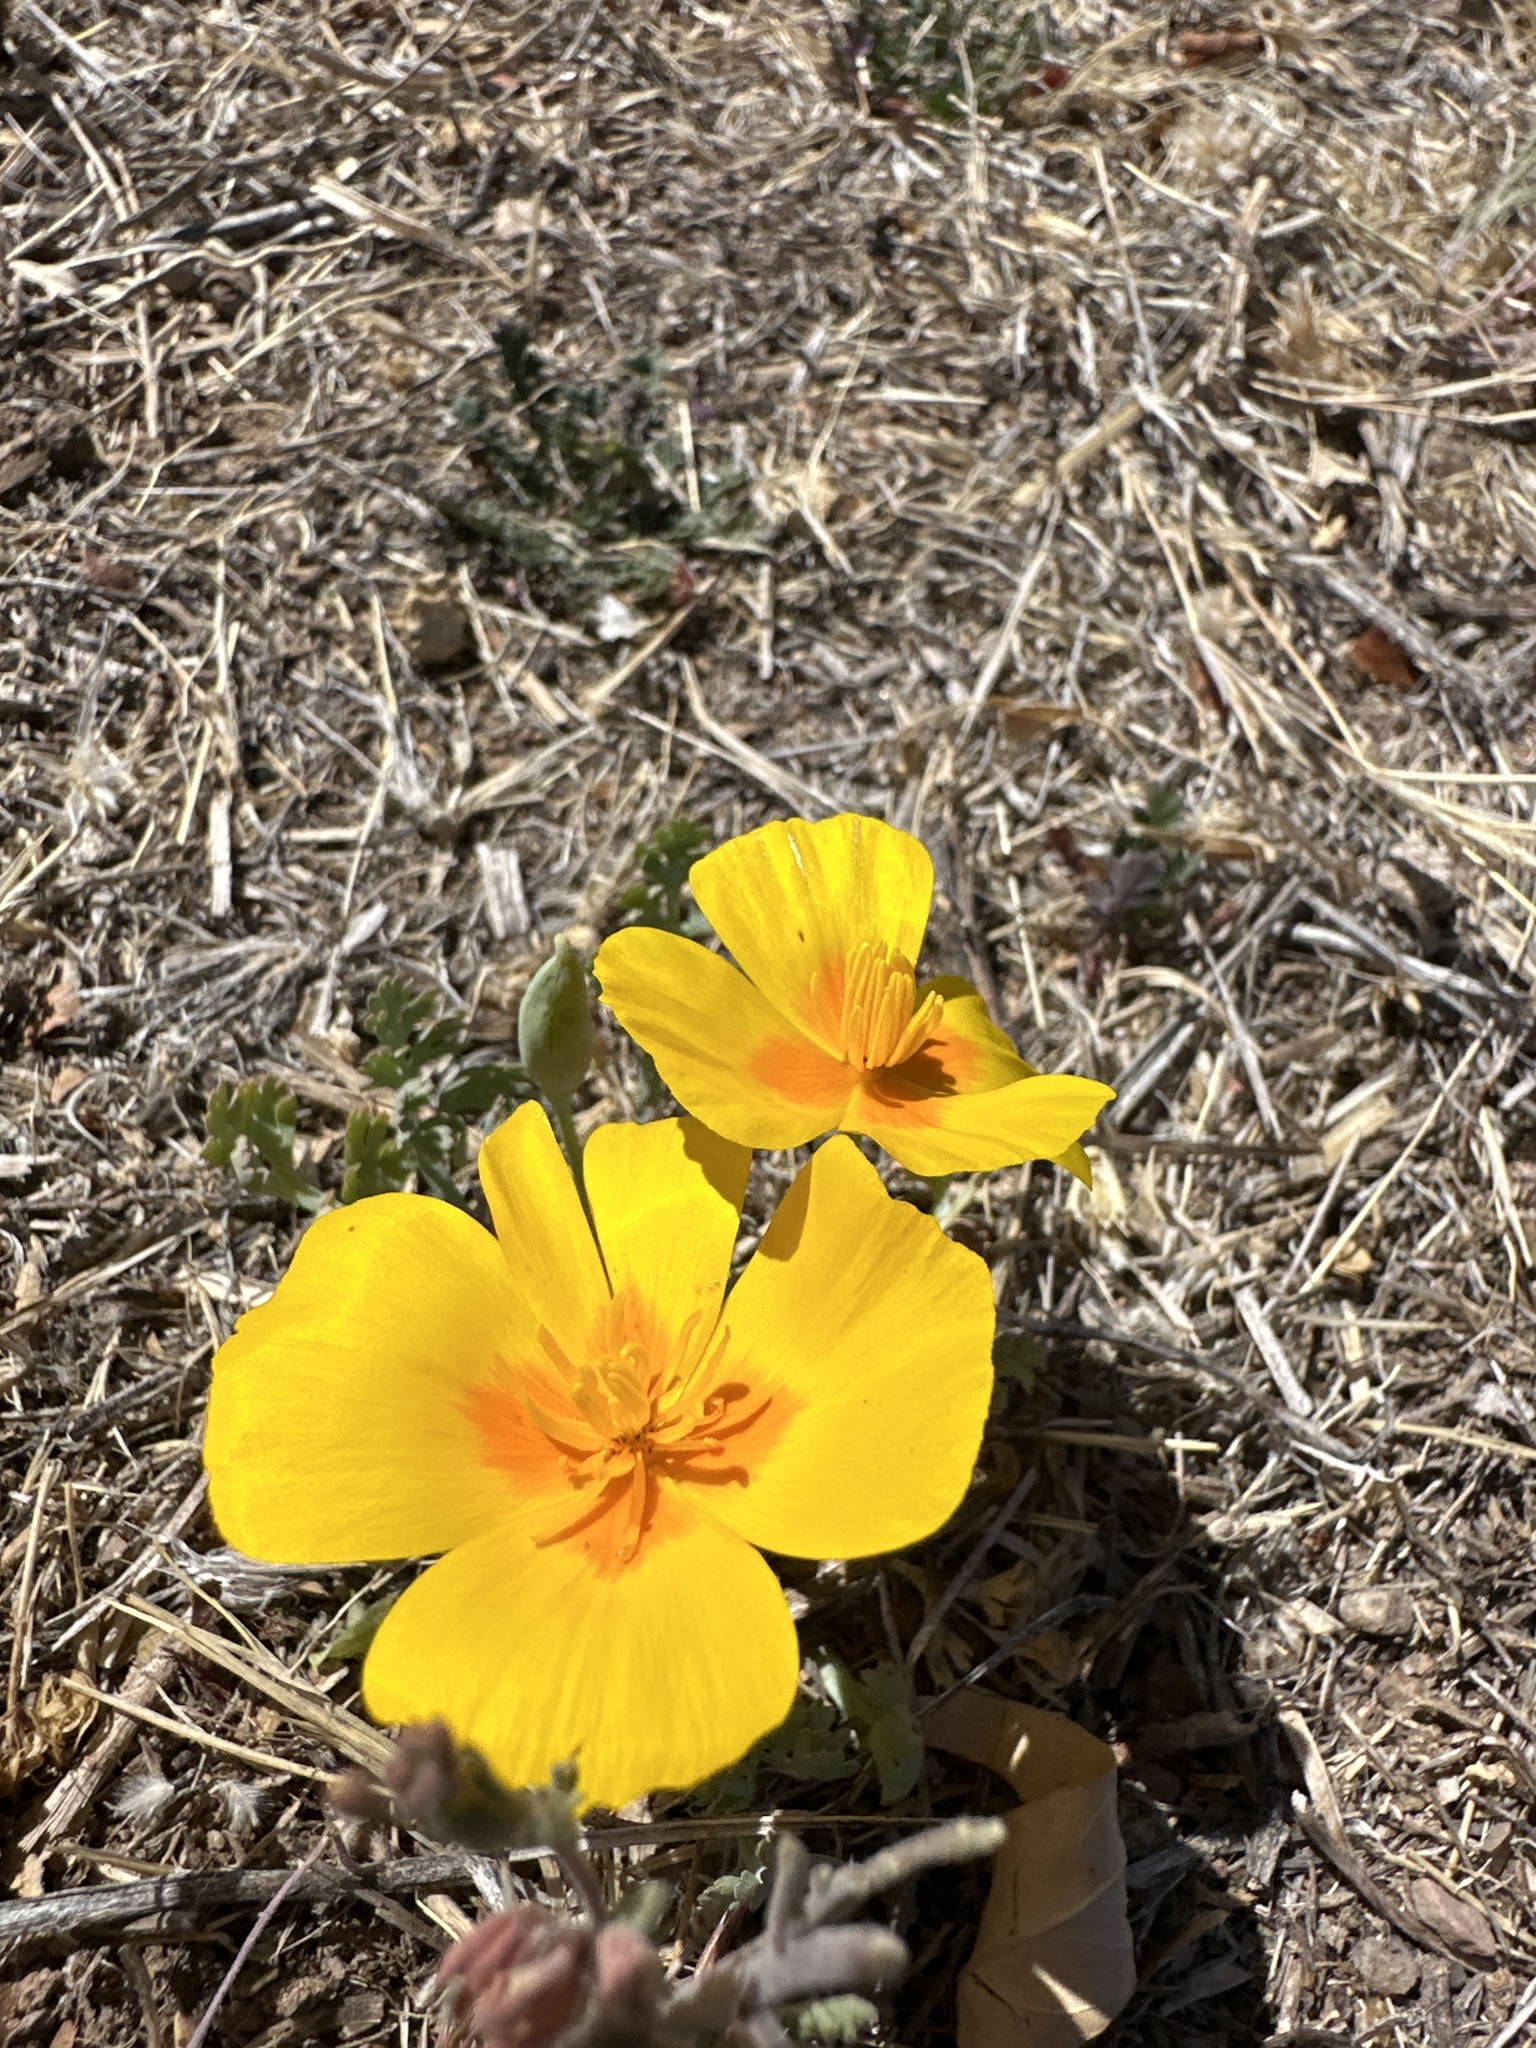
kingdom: Plantae
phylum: Tracheophyta
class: Magnoliopsida
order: Ranunculales
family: Papaveraceae
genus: Eschscholzia
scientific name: Eschscholzia californica
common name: California poppy
